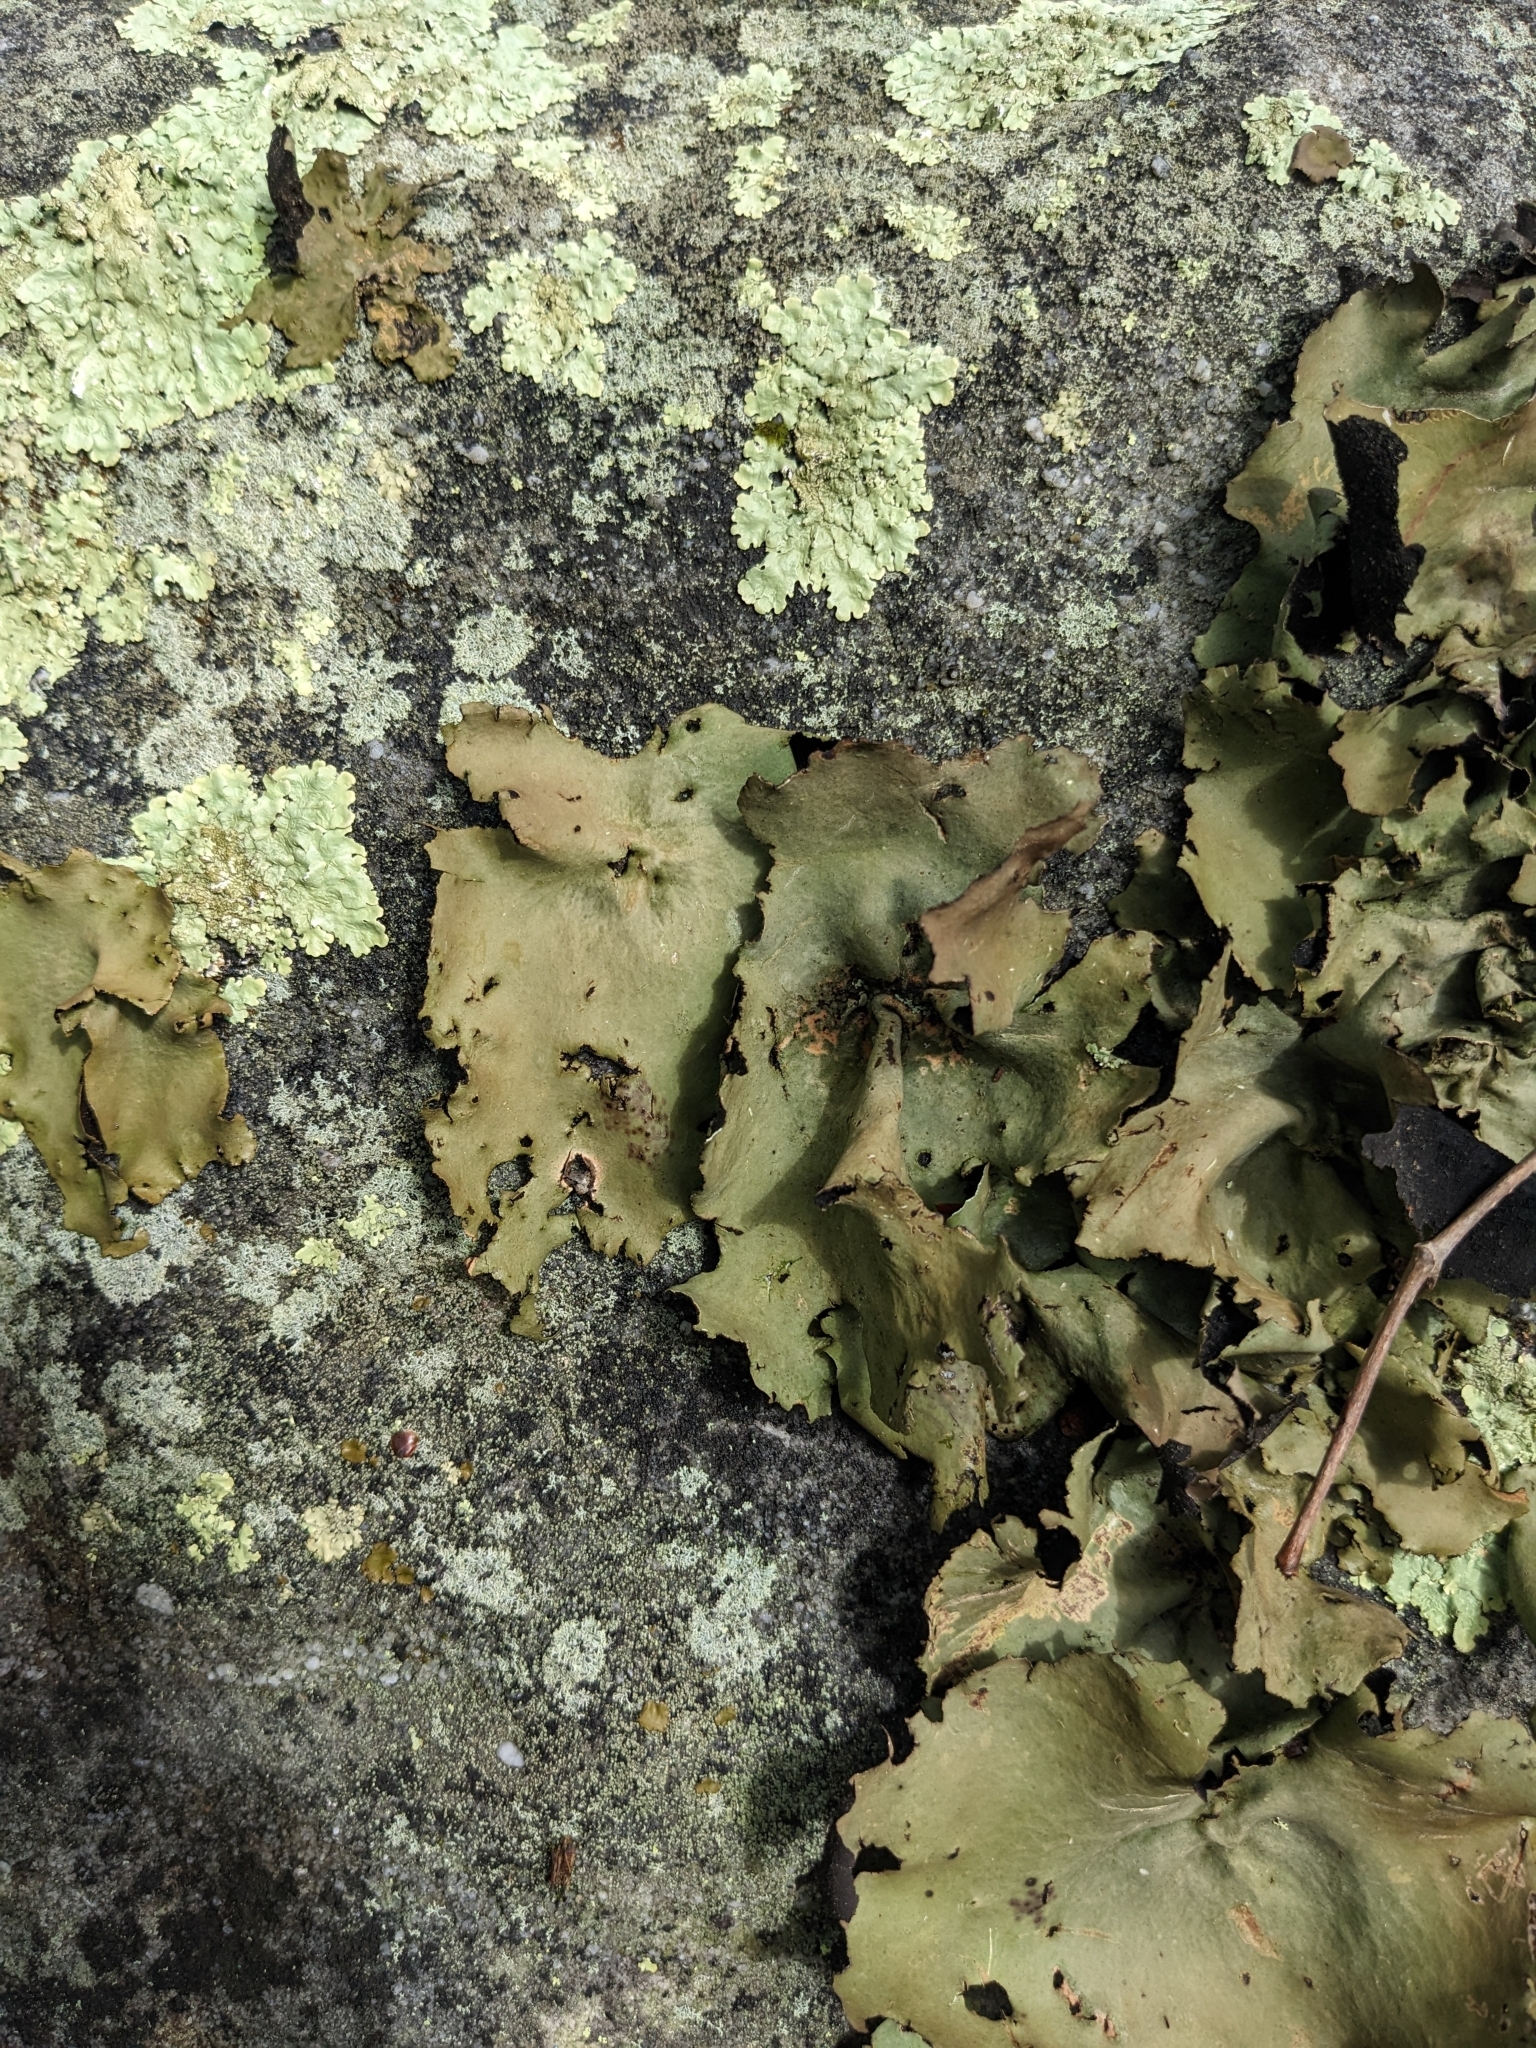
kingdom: Fungi
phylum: Ascomycota
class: Lecanoromycetes
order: Umbilicariales
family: Umbilicariaceae
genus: Umbilicaria
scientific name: Umbilicaria mammulata
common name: Smooth rock tripe
